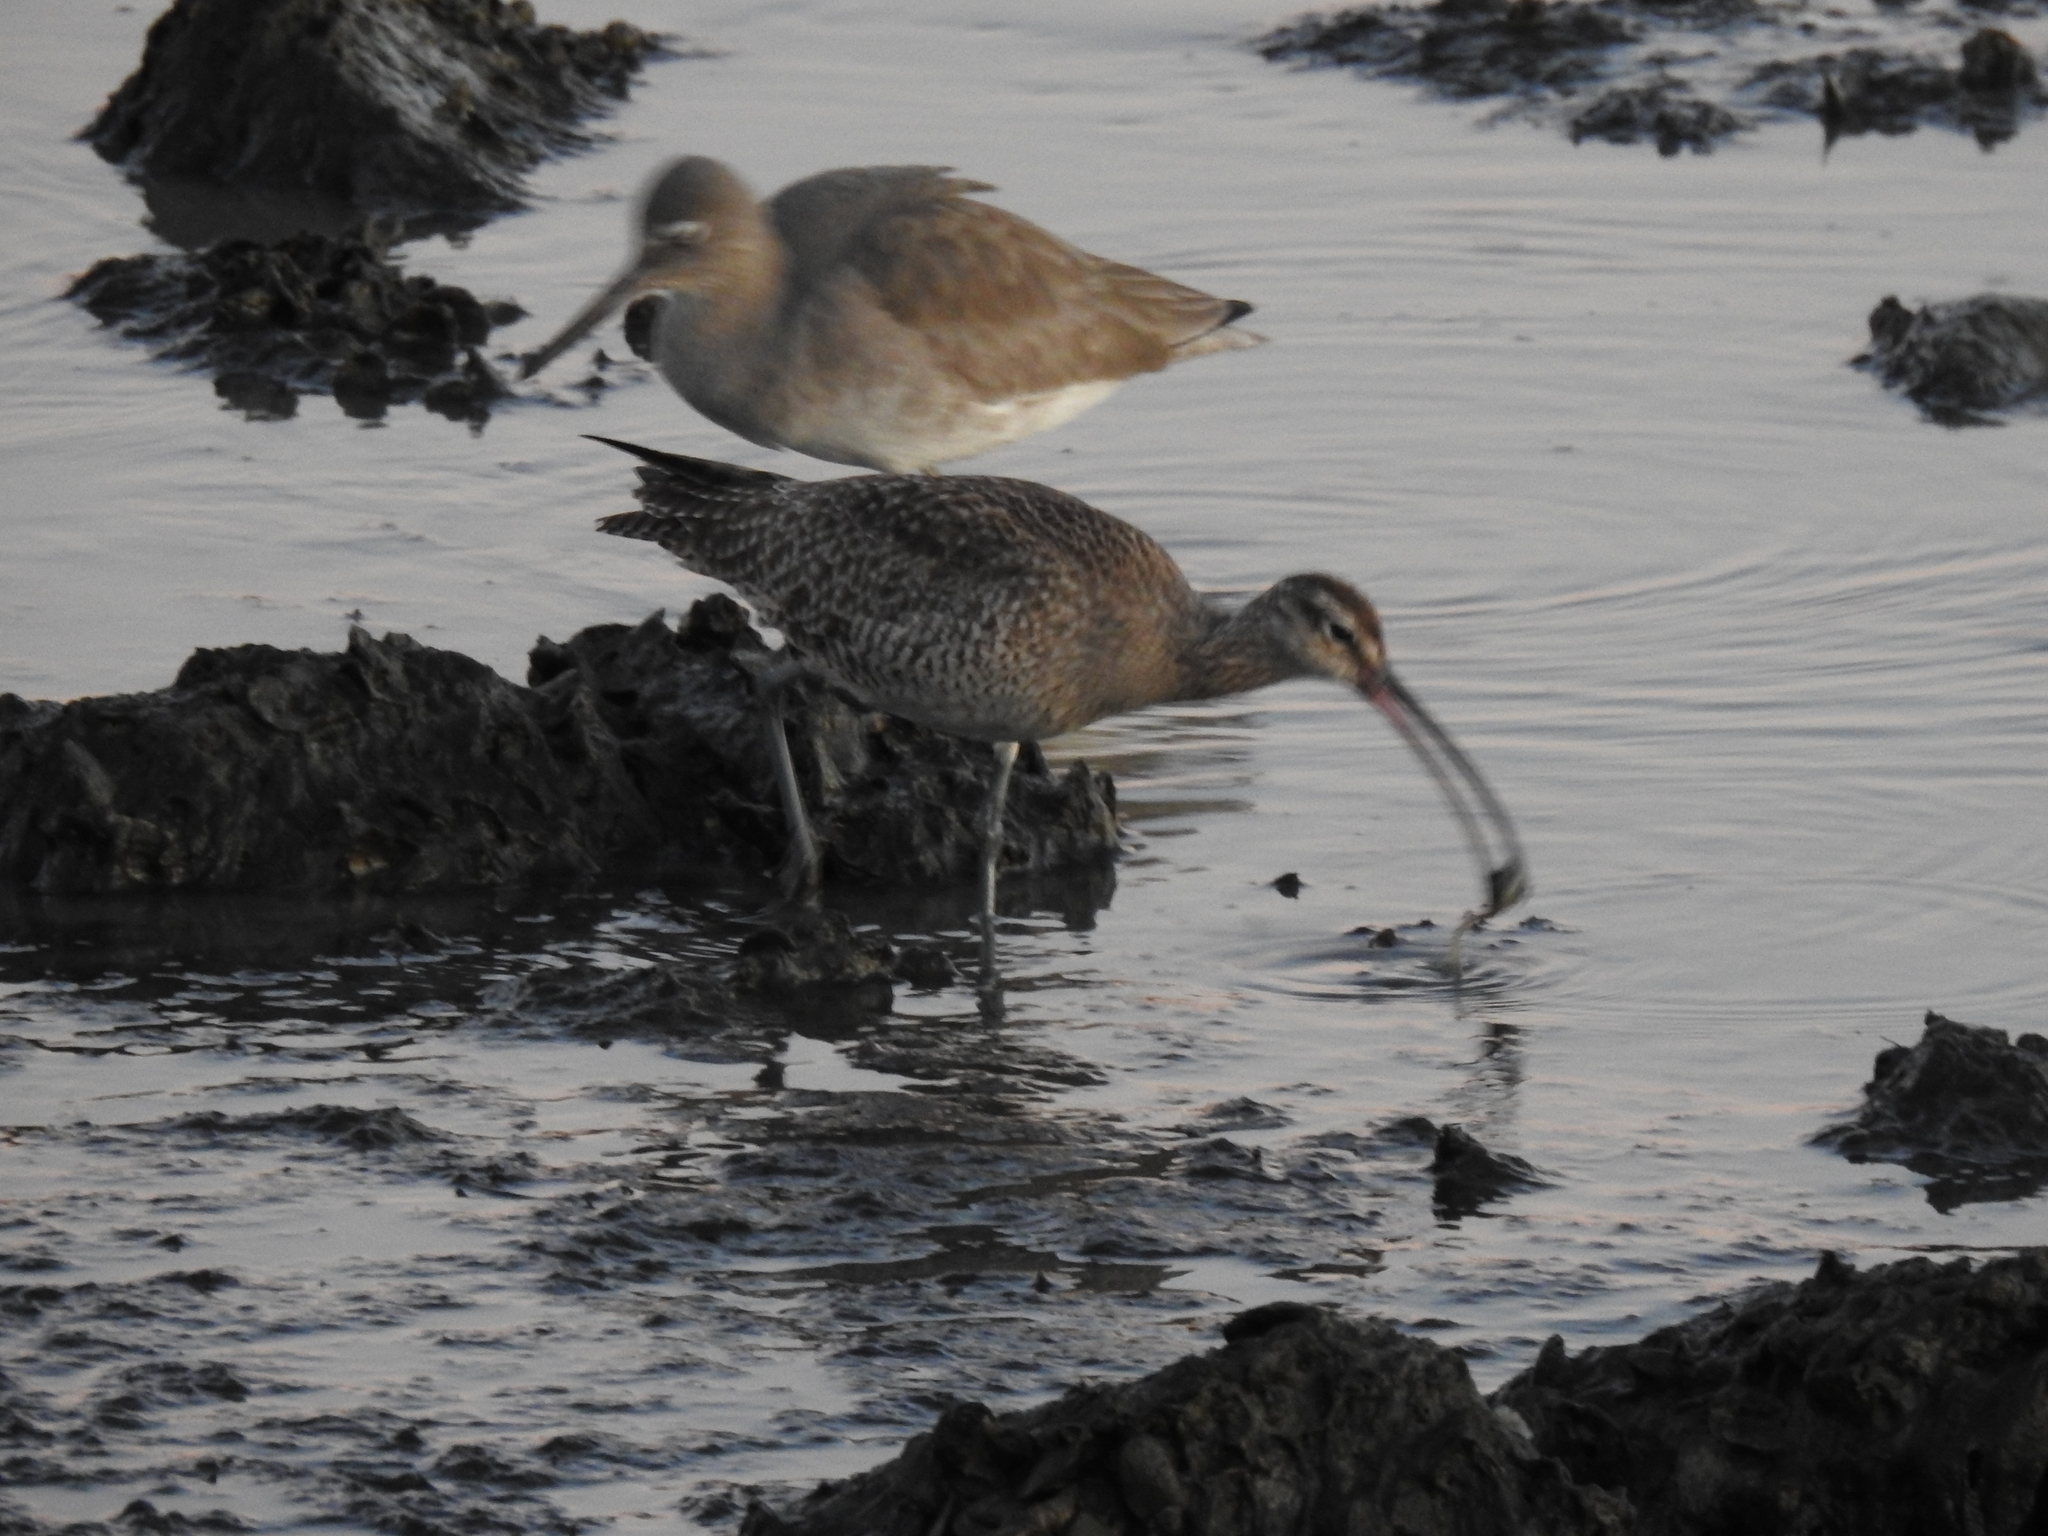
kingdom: Animalia
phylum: Chordata
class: Aves
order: Charadriiformes
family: Scolopacidae
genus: Numenius
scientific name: Numenius phaeopus
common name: Whimbrel
